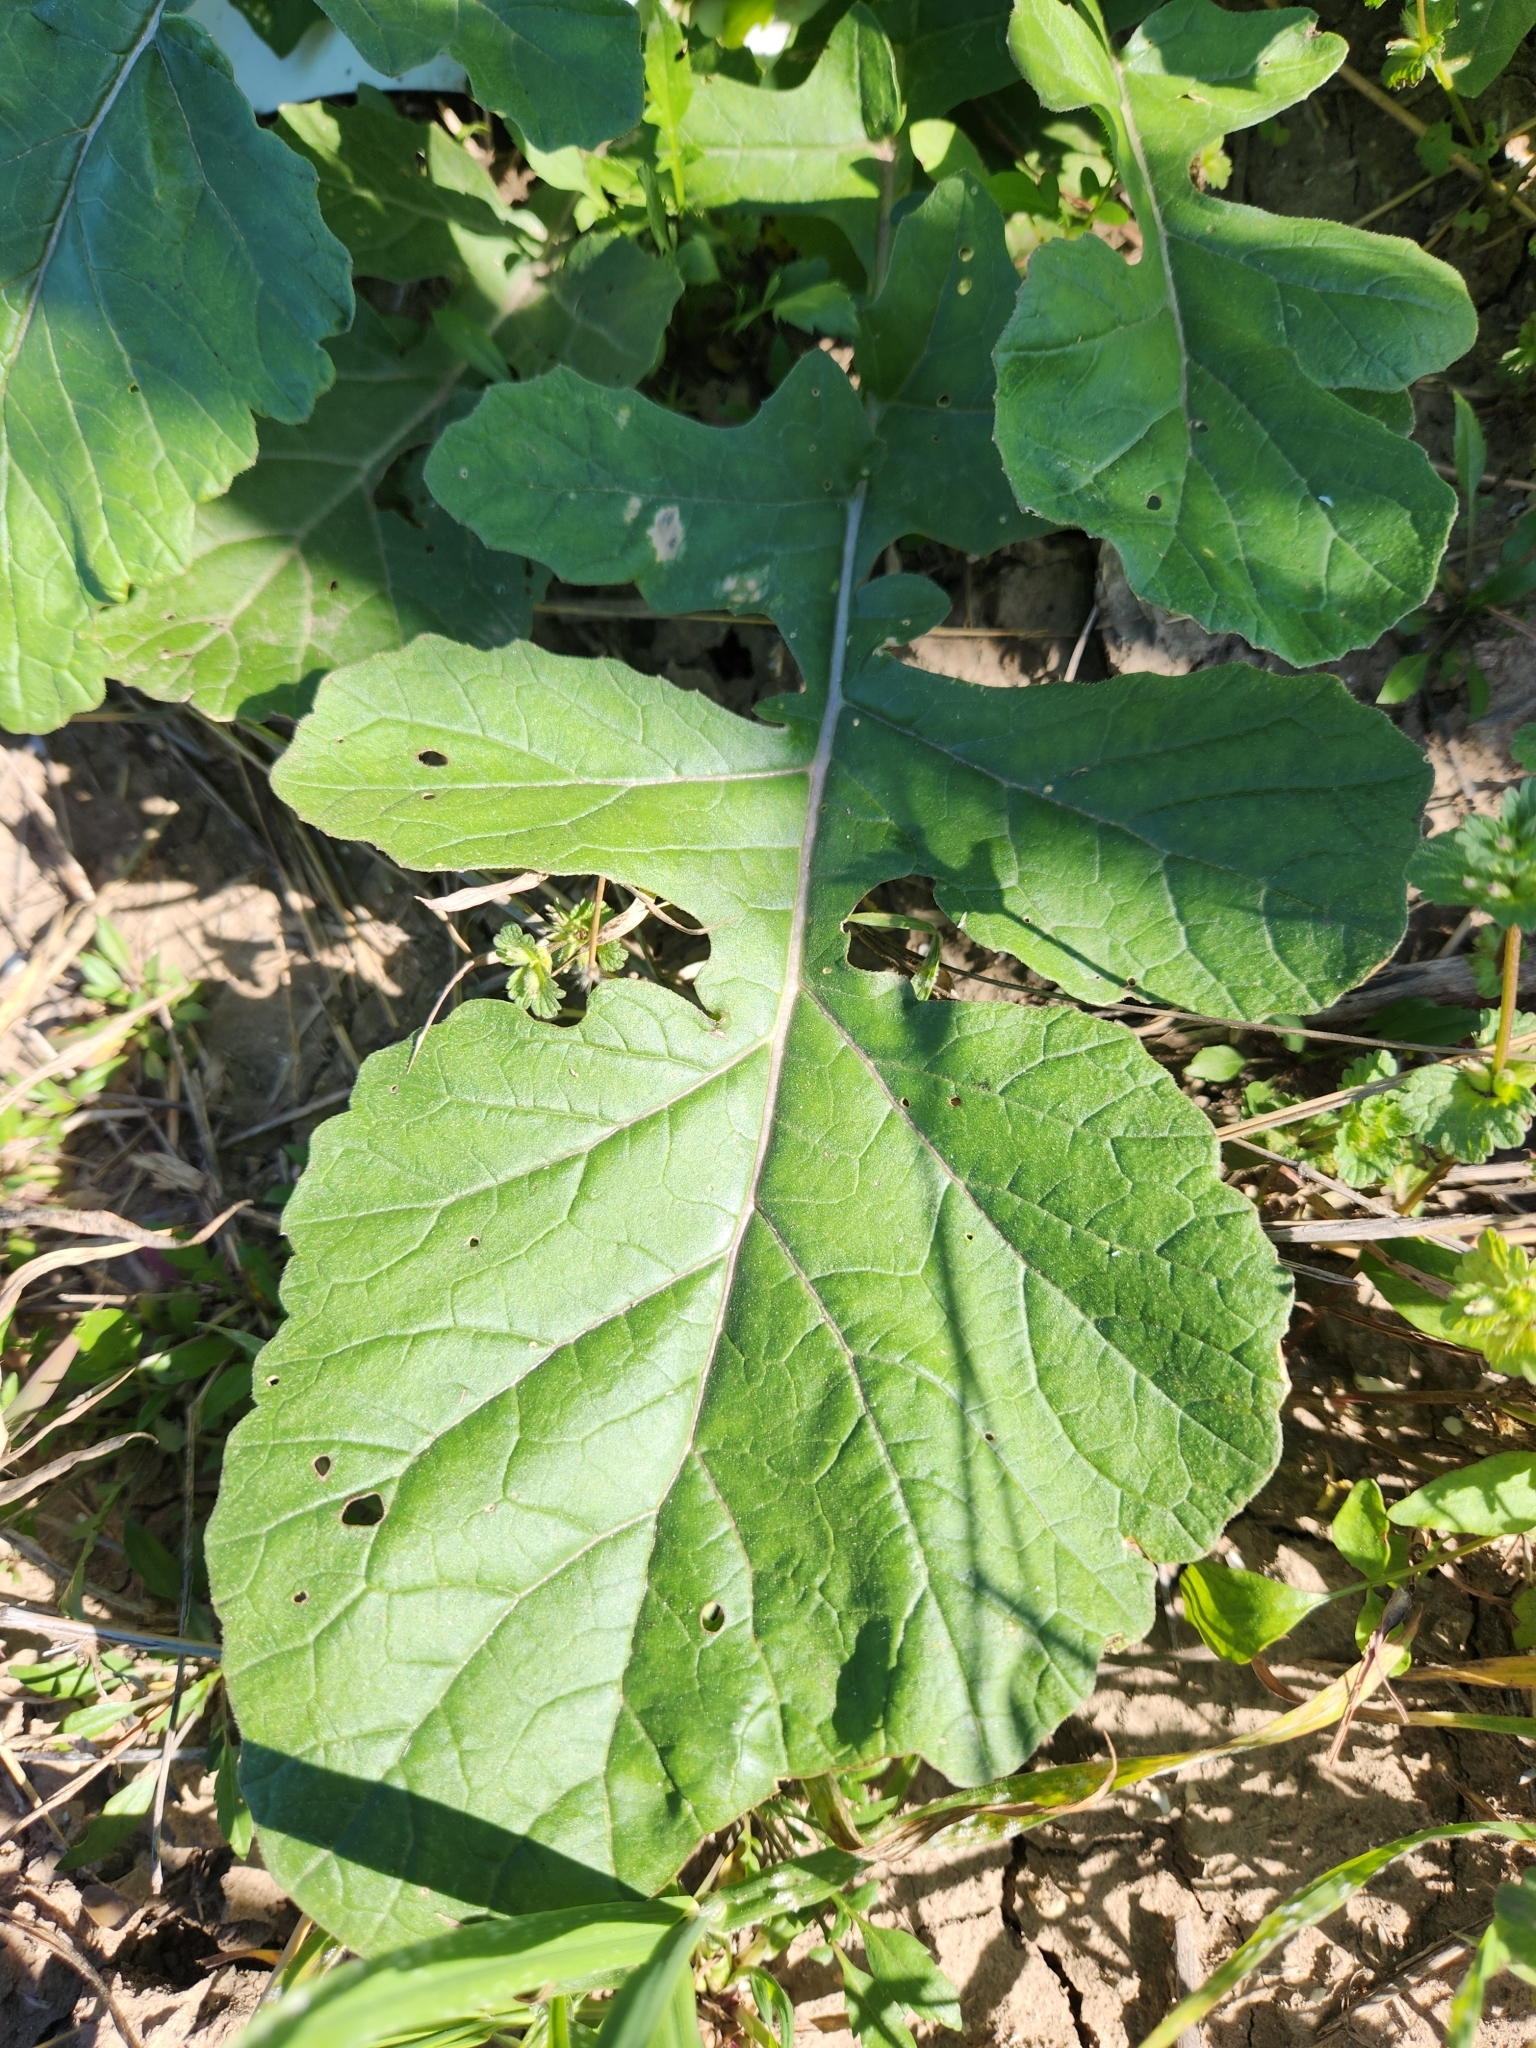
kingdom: Plantae
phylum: Tracheophyta
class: Magnoliopsida
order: Brassicales
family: Brassicaceae
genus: Rapistrum
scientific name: Rapistrum rugosum
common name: Annual bastardcabbage
